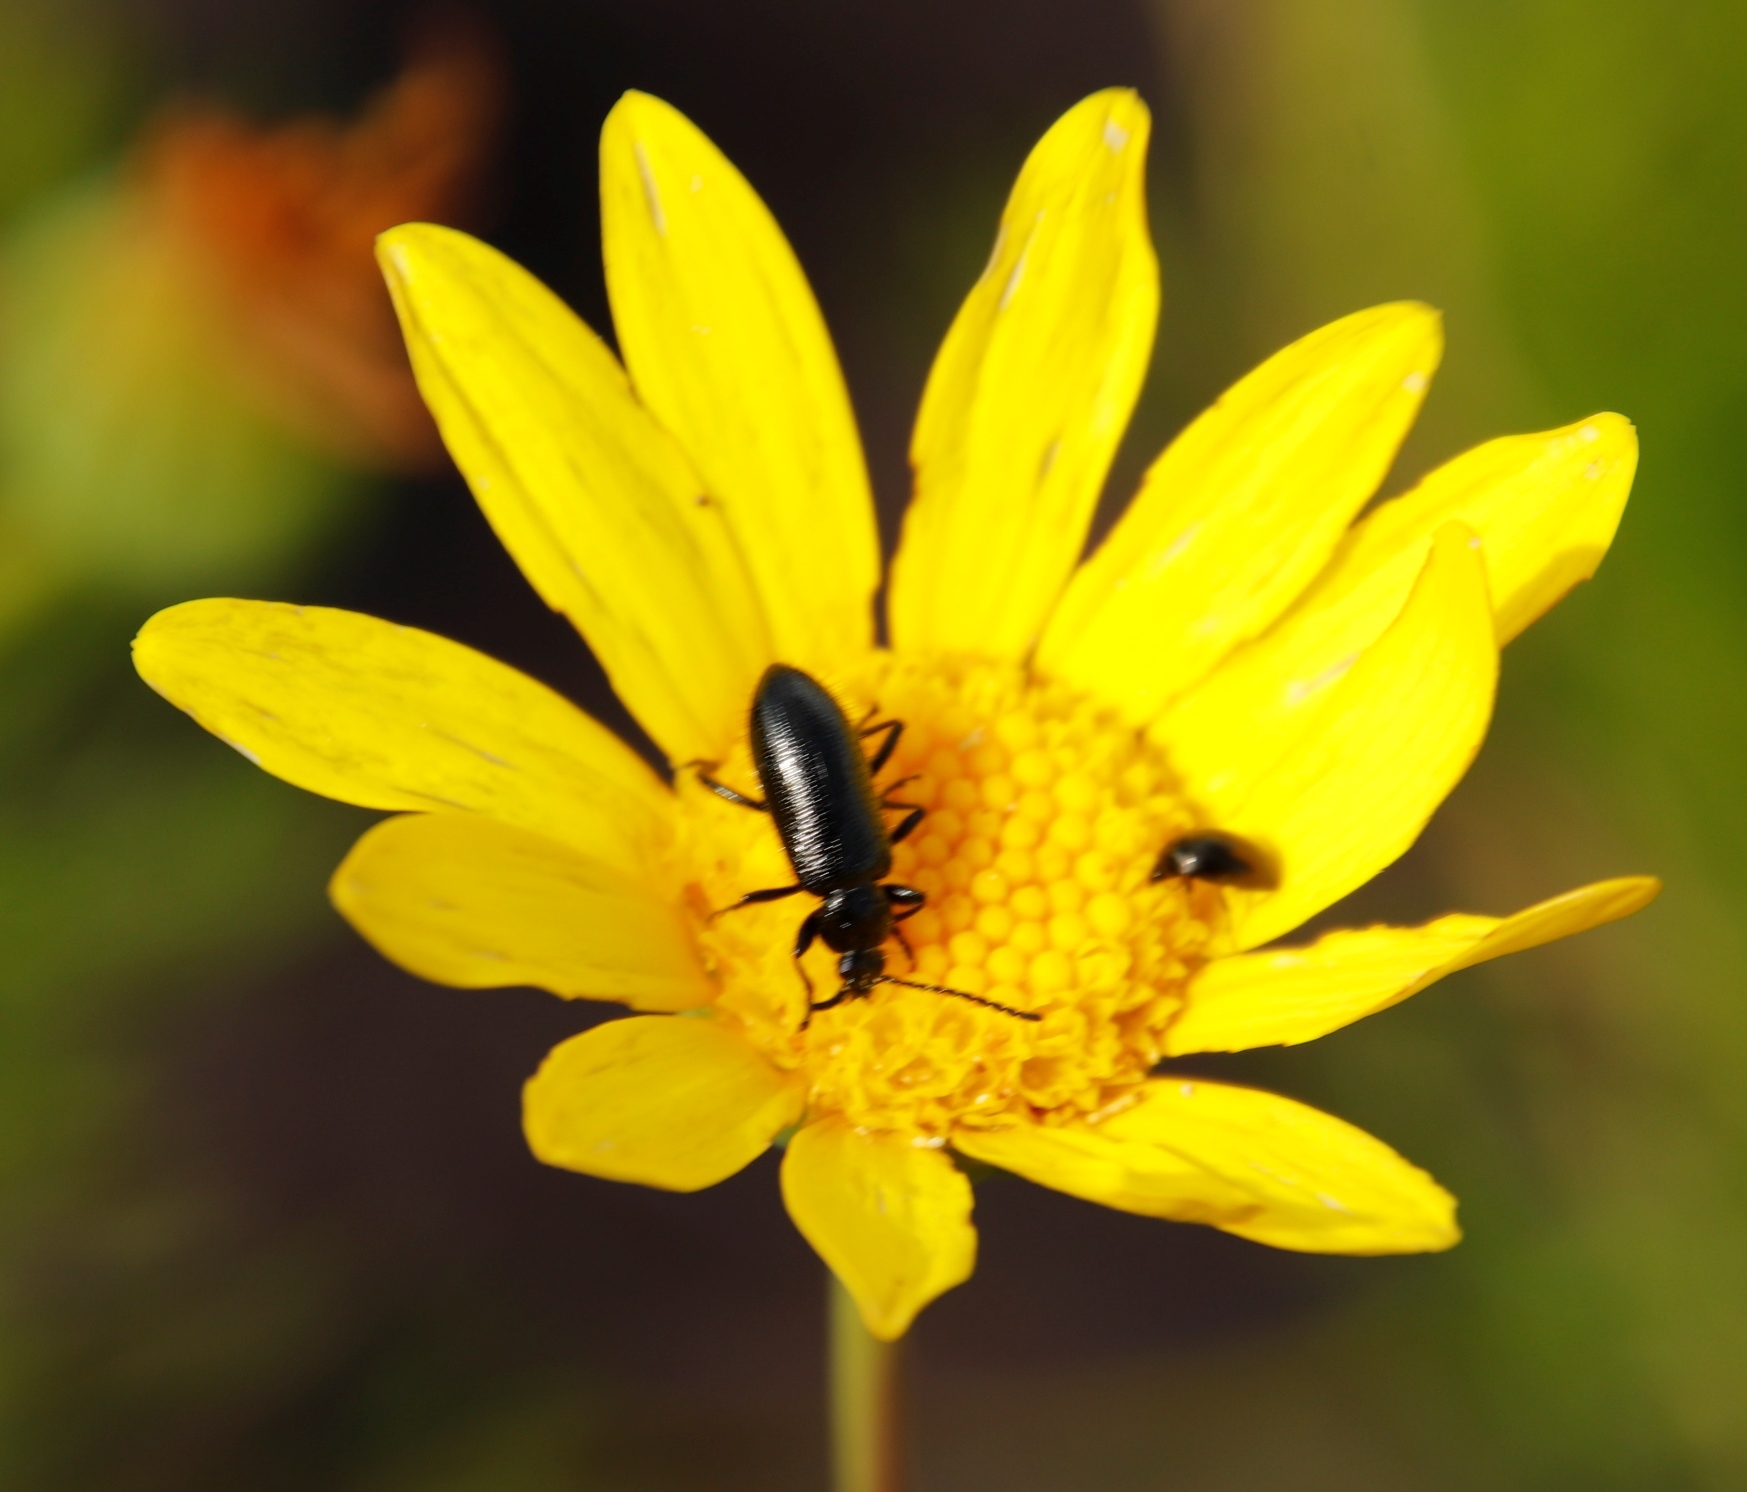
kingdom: Plantae
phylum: Tracheophyta
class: Magnoliopsida
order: Asterales
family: Asteraceae
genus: Euryops
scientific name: Euryops abrotanifolius
